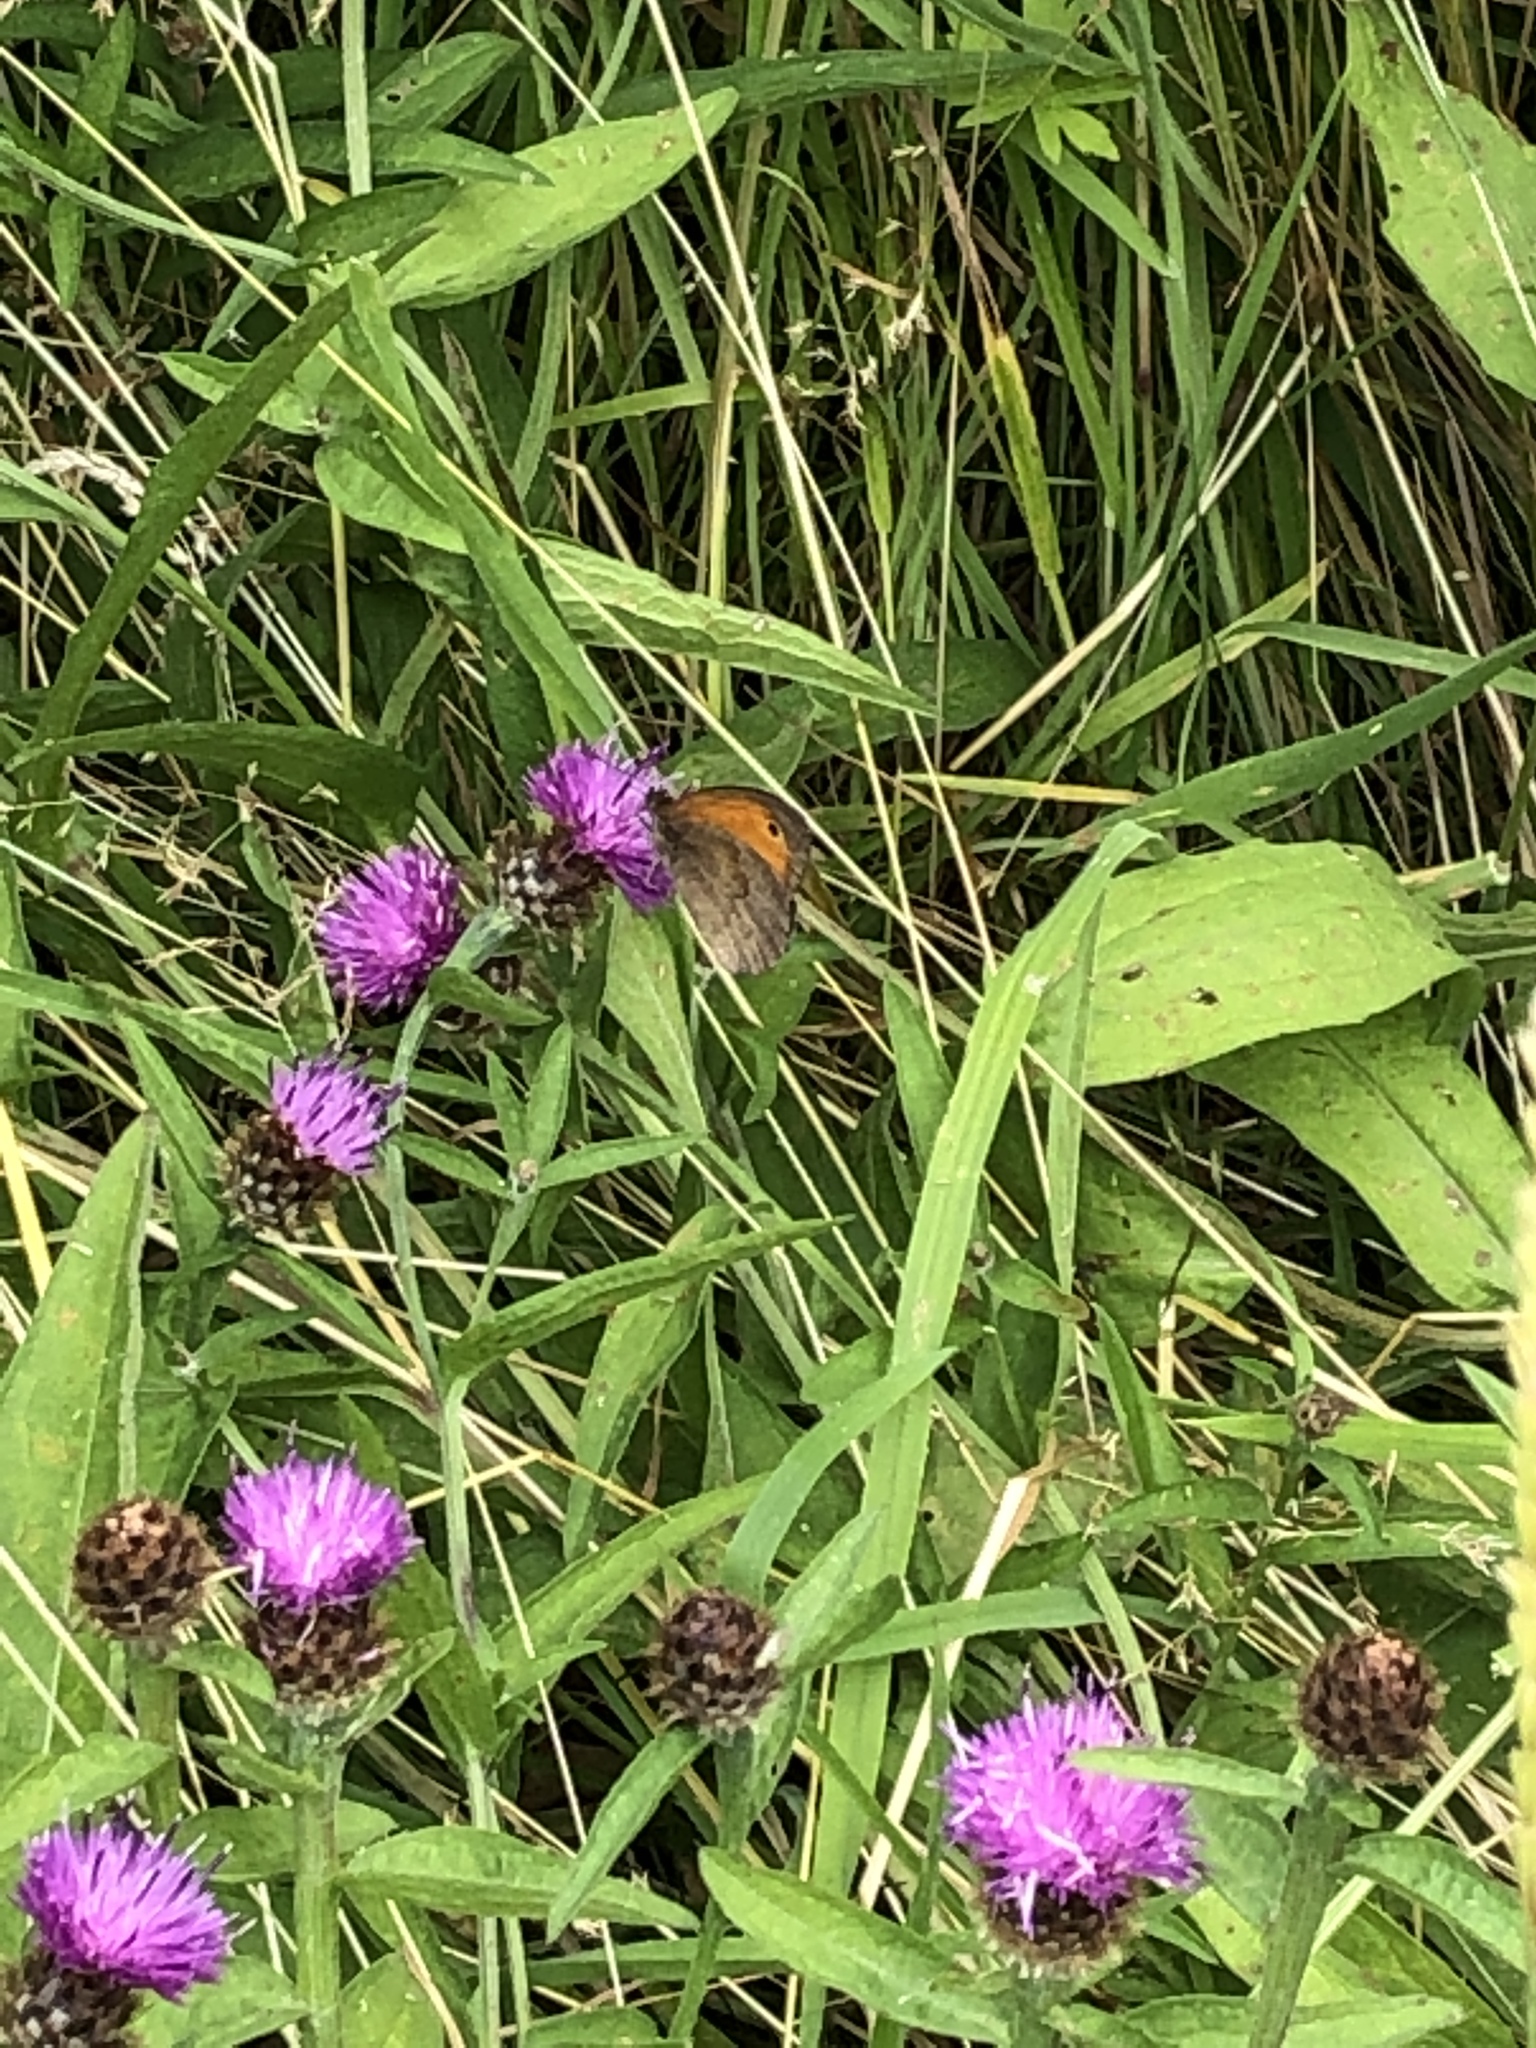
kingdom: Animalia
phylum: Arthropoda
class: Insecta
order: Lepidoptera
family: Nymphalidae
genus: Maniola
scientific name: Maniola jurtina
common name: Meadow brown
